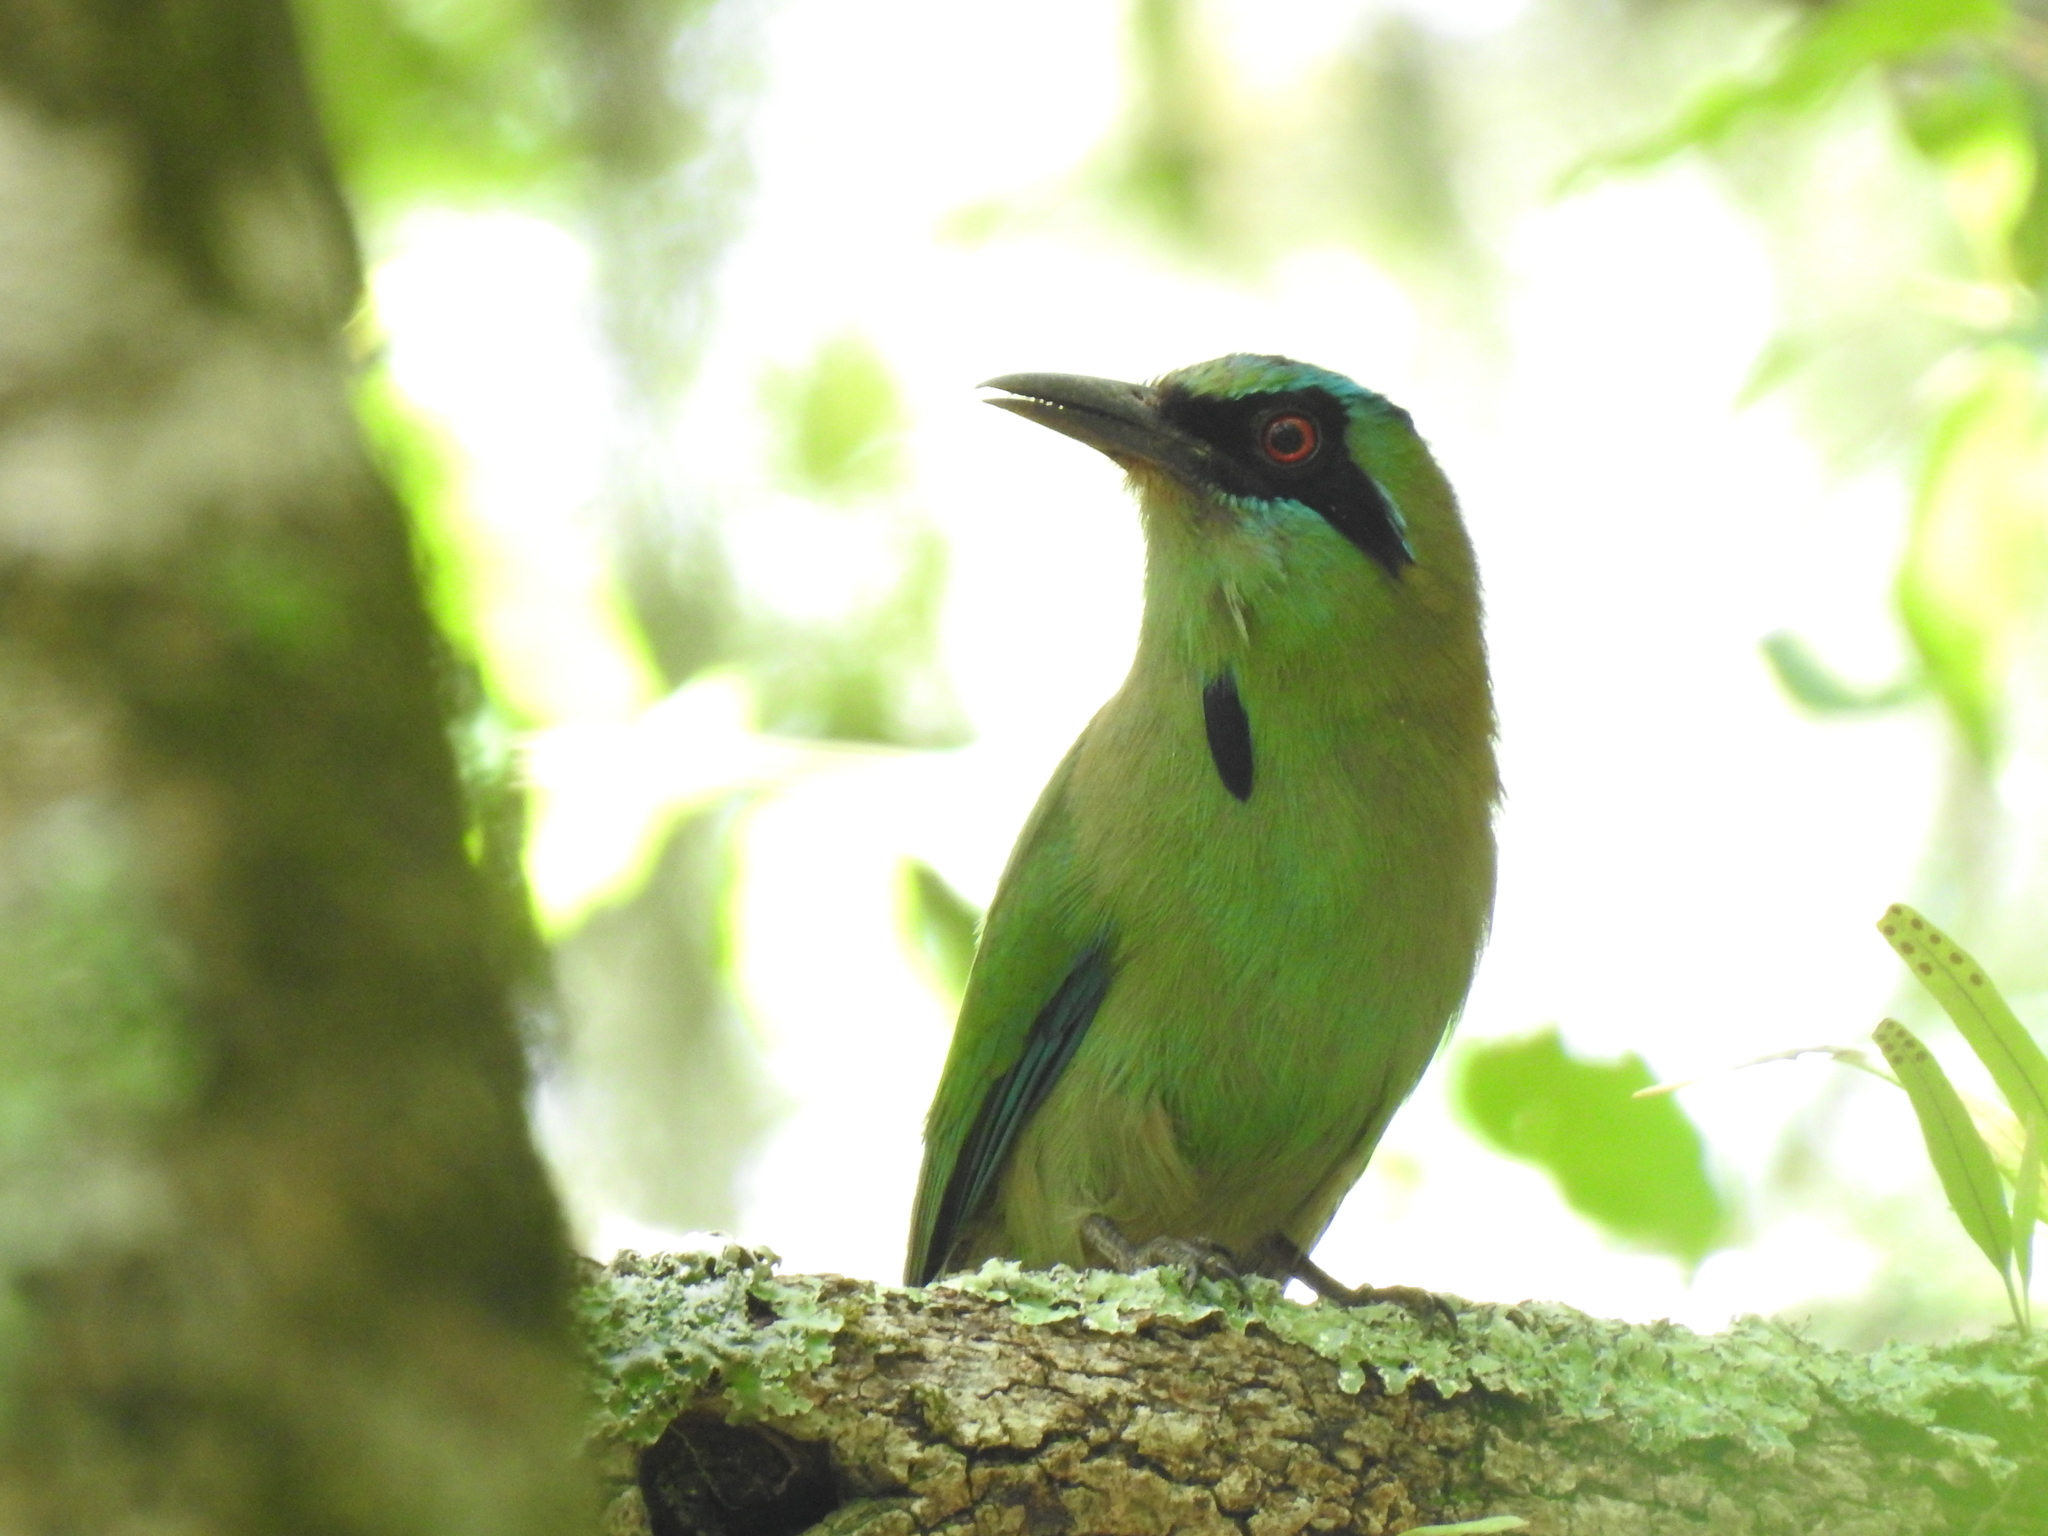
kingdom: Animalia
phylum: Chordata
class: Aves
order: Coraciiformes
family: Momotidae
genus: Momotus
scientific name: Momotus coeruliceps
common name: Blue-capped motmot
